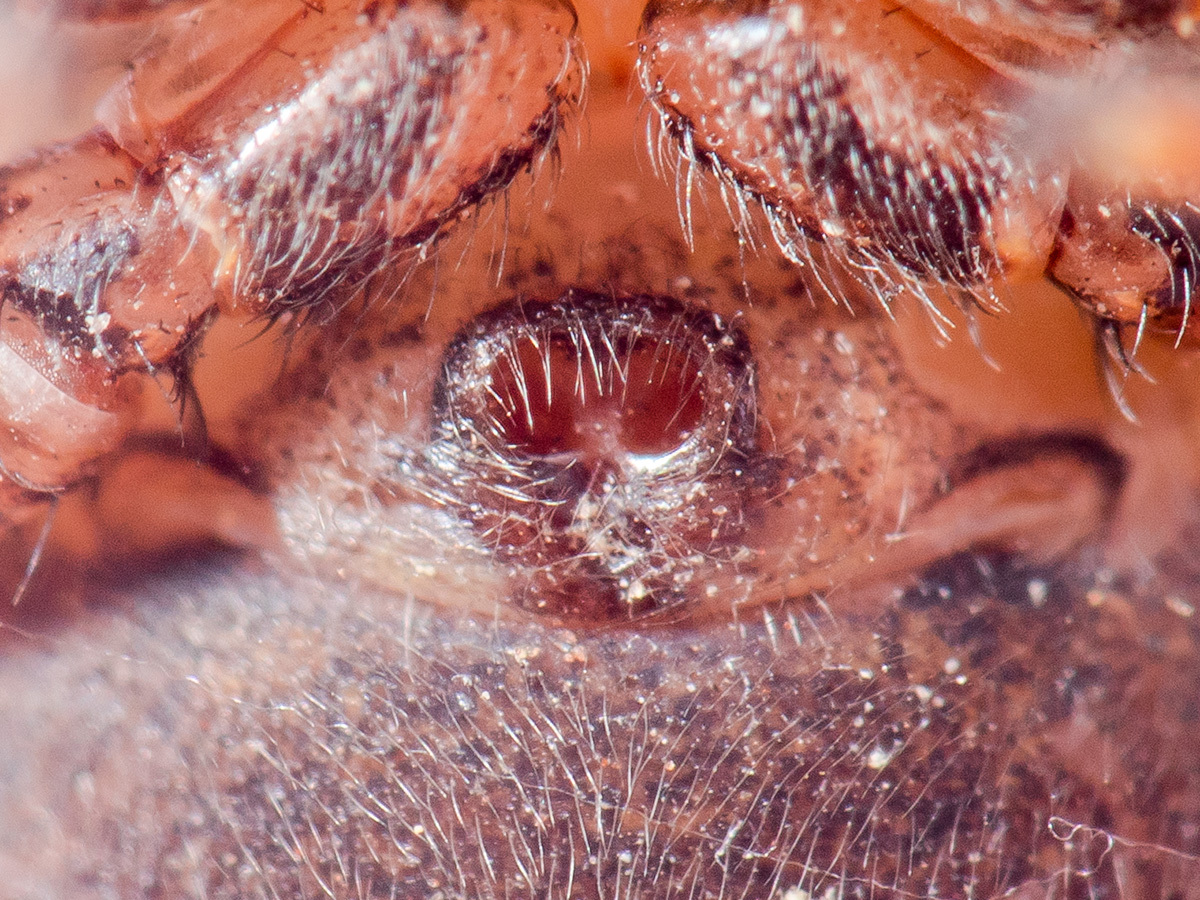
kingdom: Animalia
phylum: Arthropoda
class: Arachnida
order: Araneae
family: Thomisidae
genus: Xysticus
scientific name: Xysticus ephippiatus
